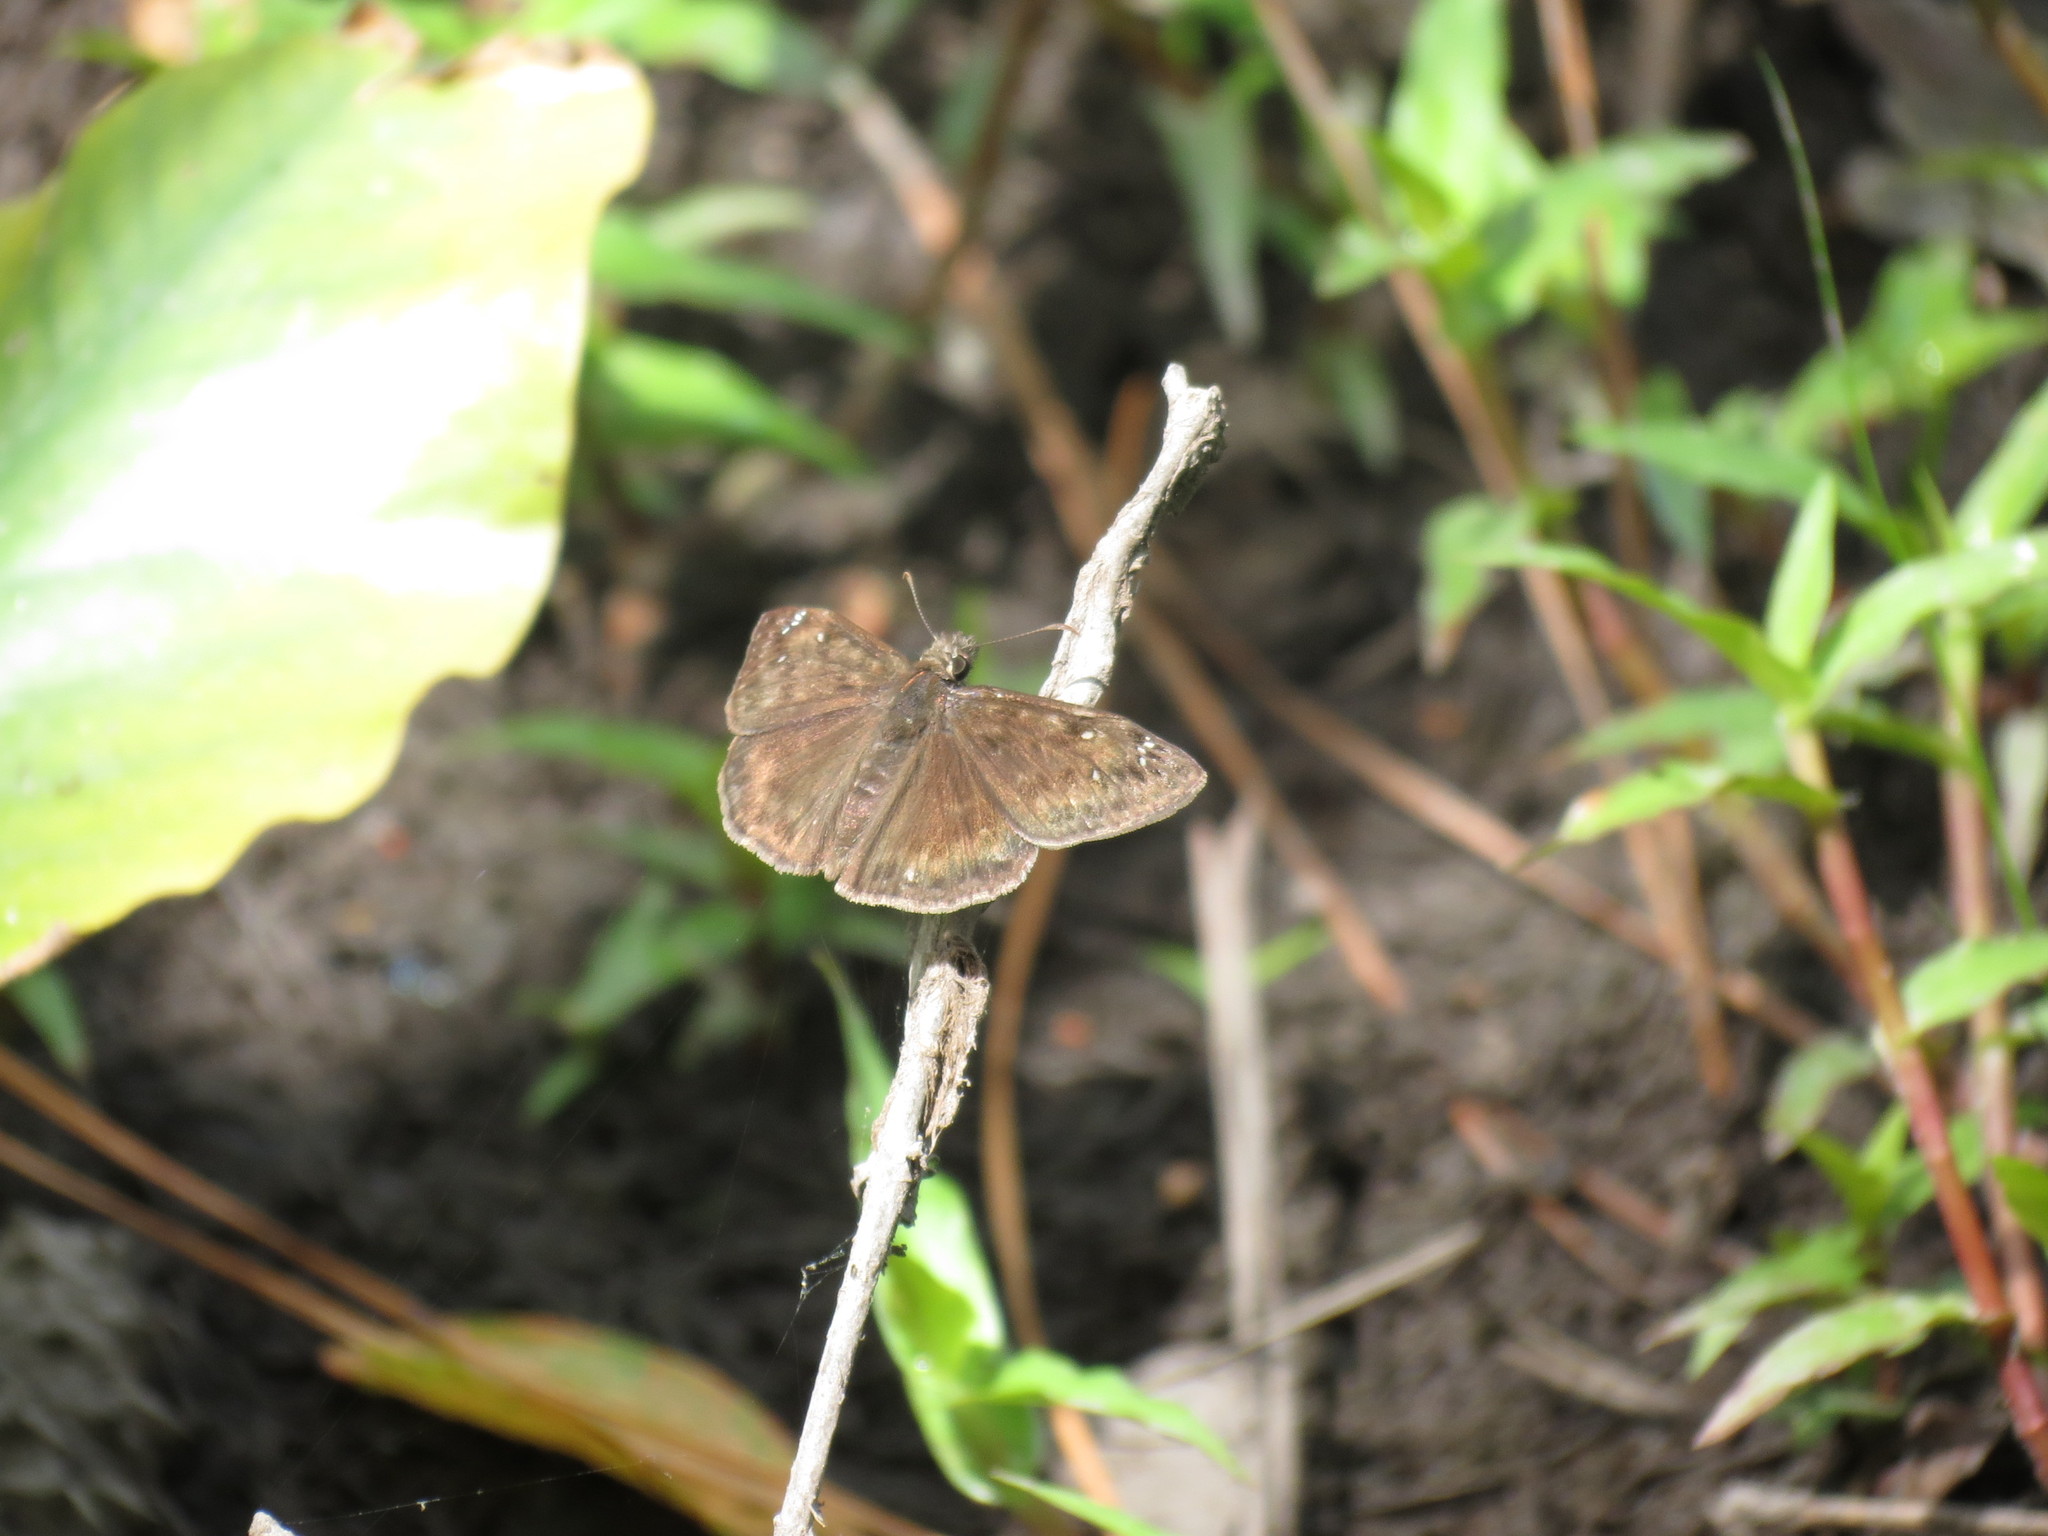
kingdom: Animalia
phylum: Arthropoda
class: Insecta
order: Lepidoptera
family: Hesperiidae
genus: Erynnis
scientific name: Erynnis horatius
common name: Horace's duskywing
